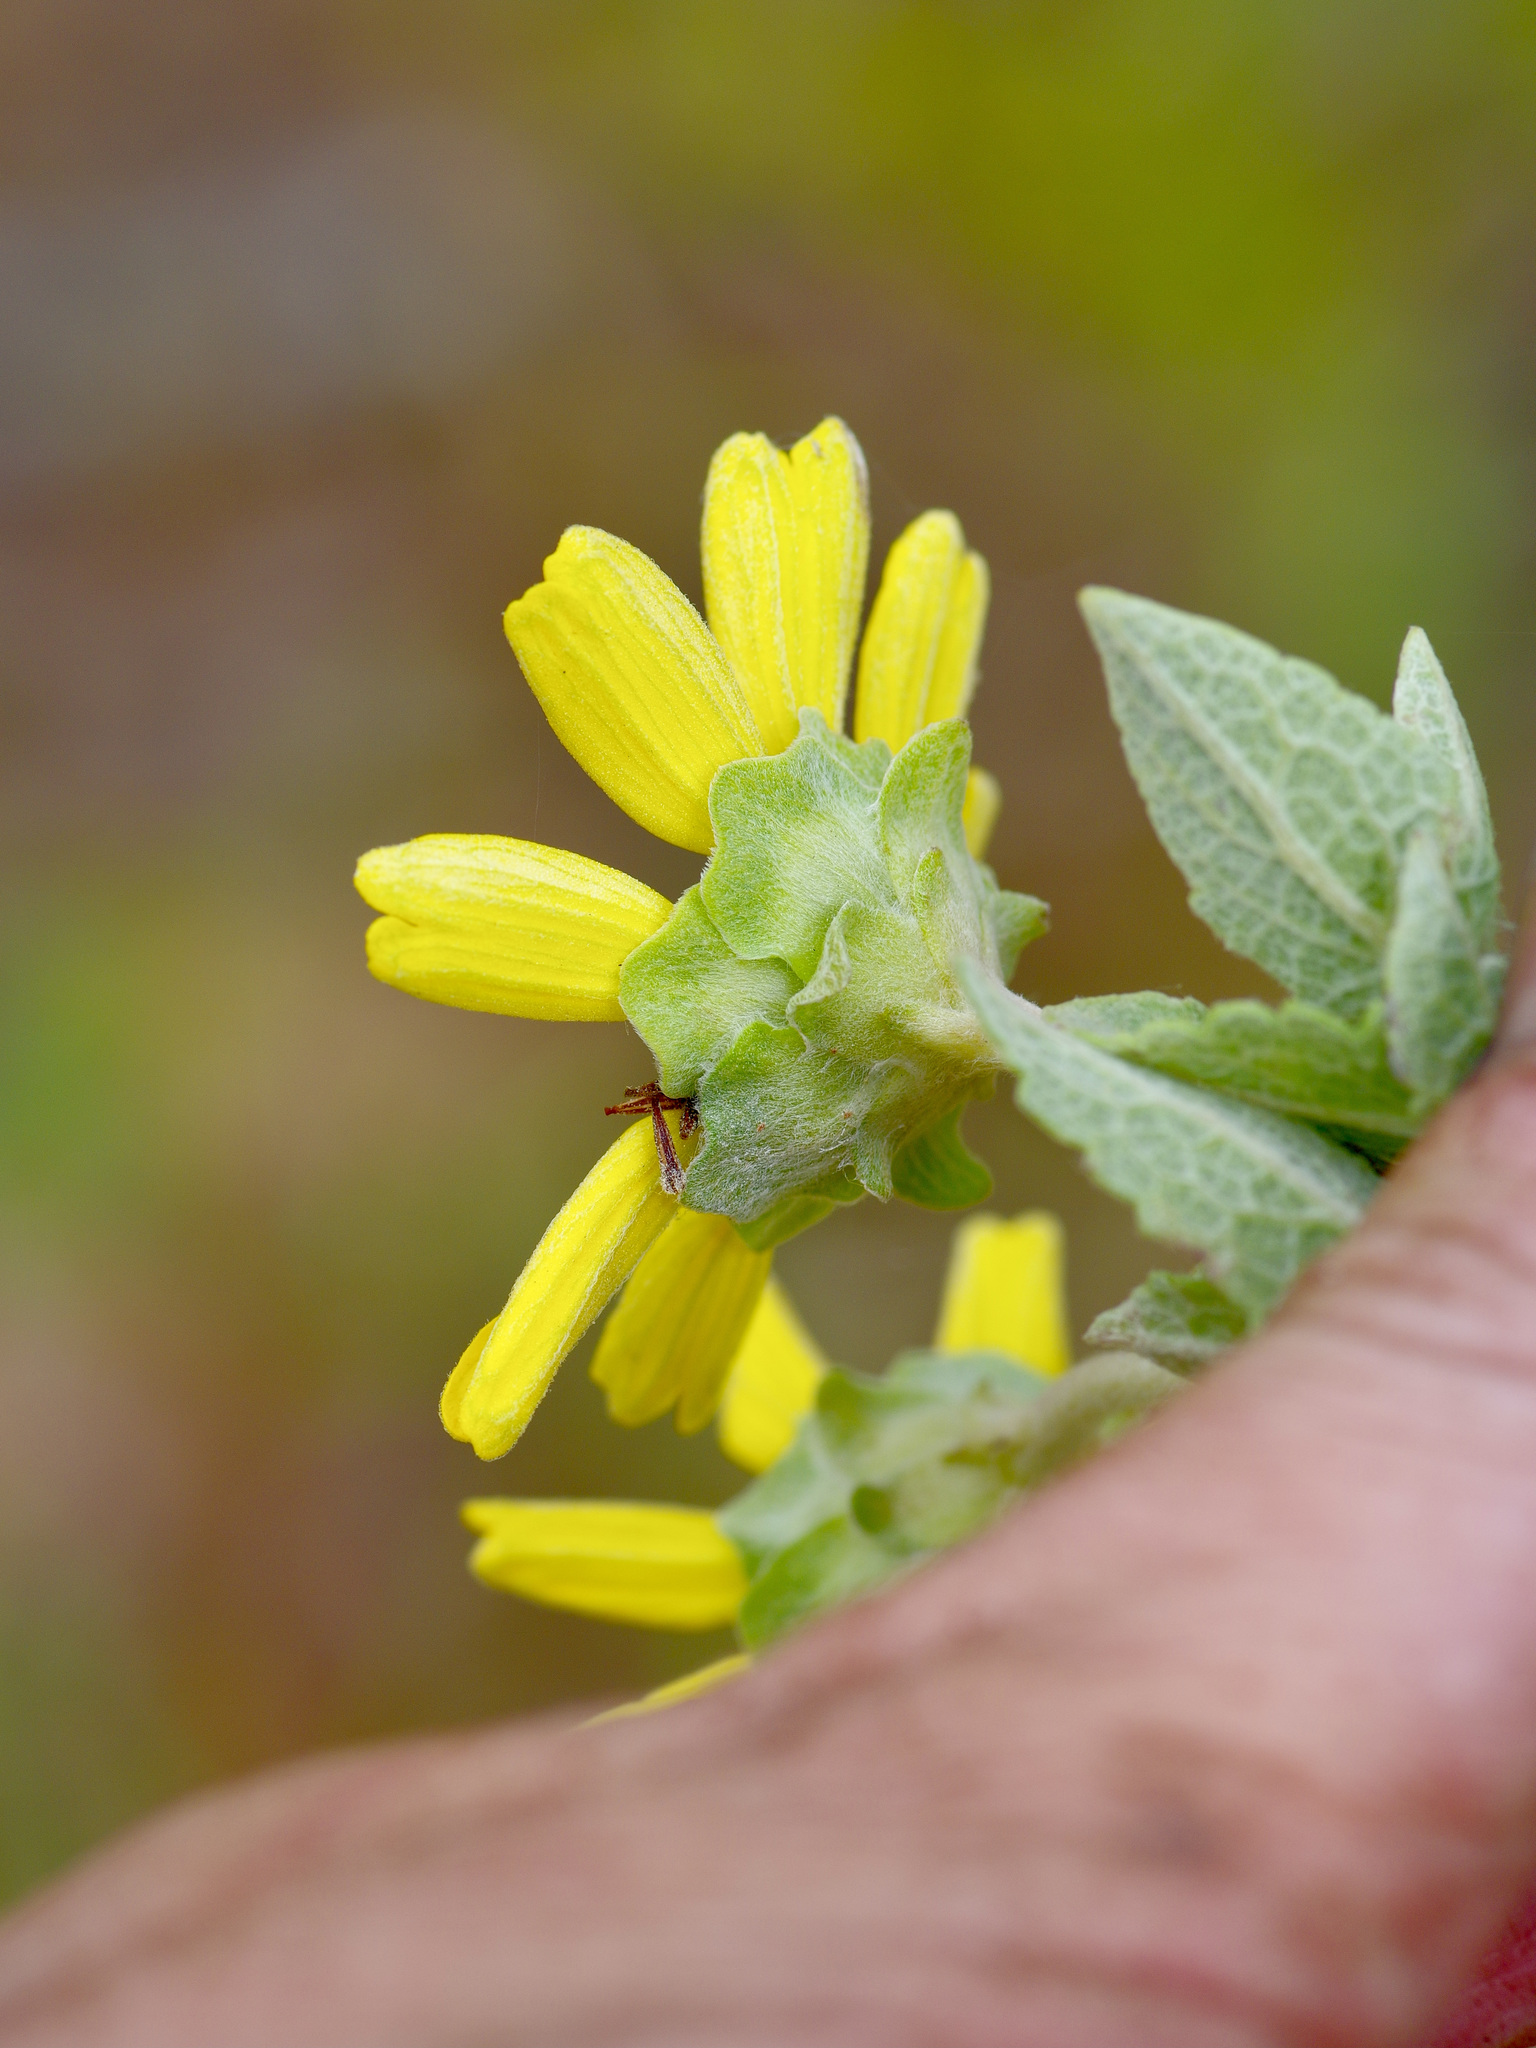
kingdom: Plantae
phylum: Tracheophyta
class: Magnoliopsida
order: Asterales
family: Asteraceae
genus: Berlandiera
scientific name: Berlandiera betonicifolia
